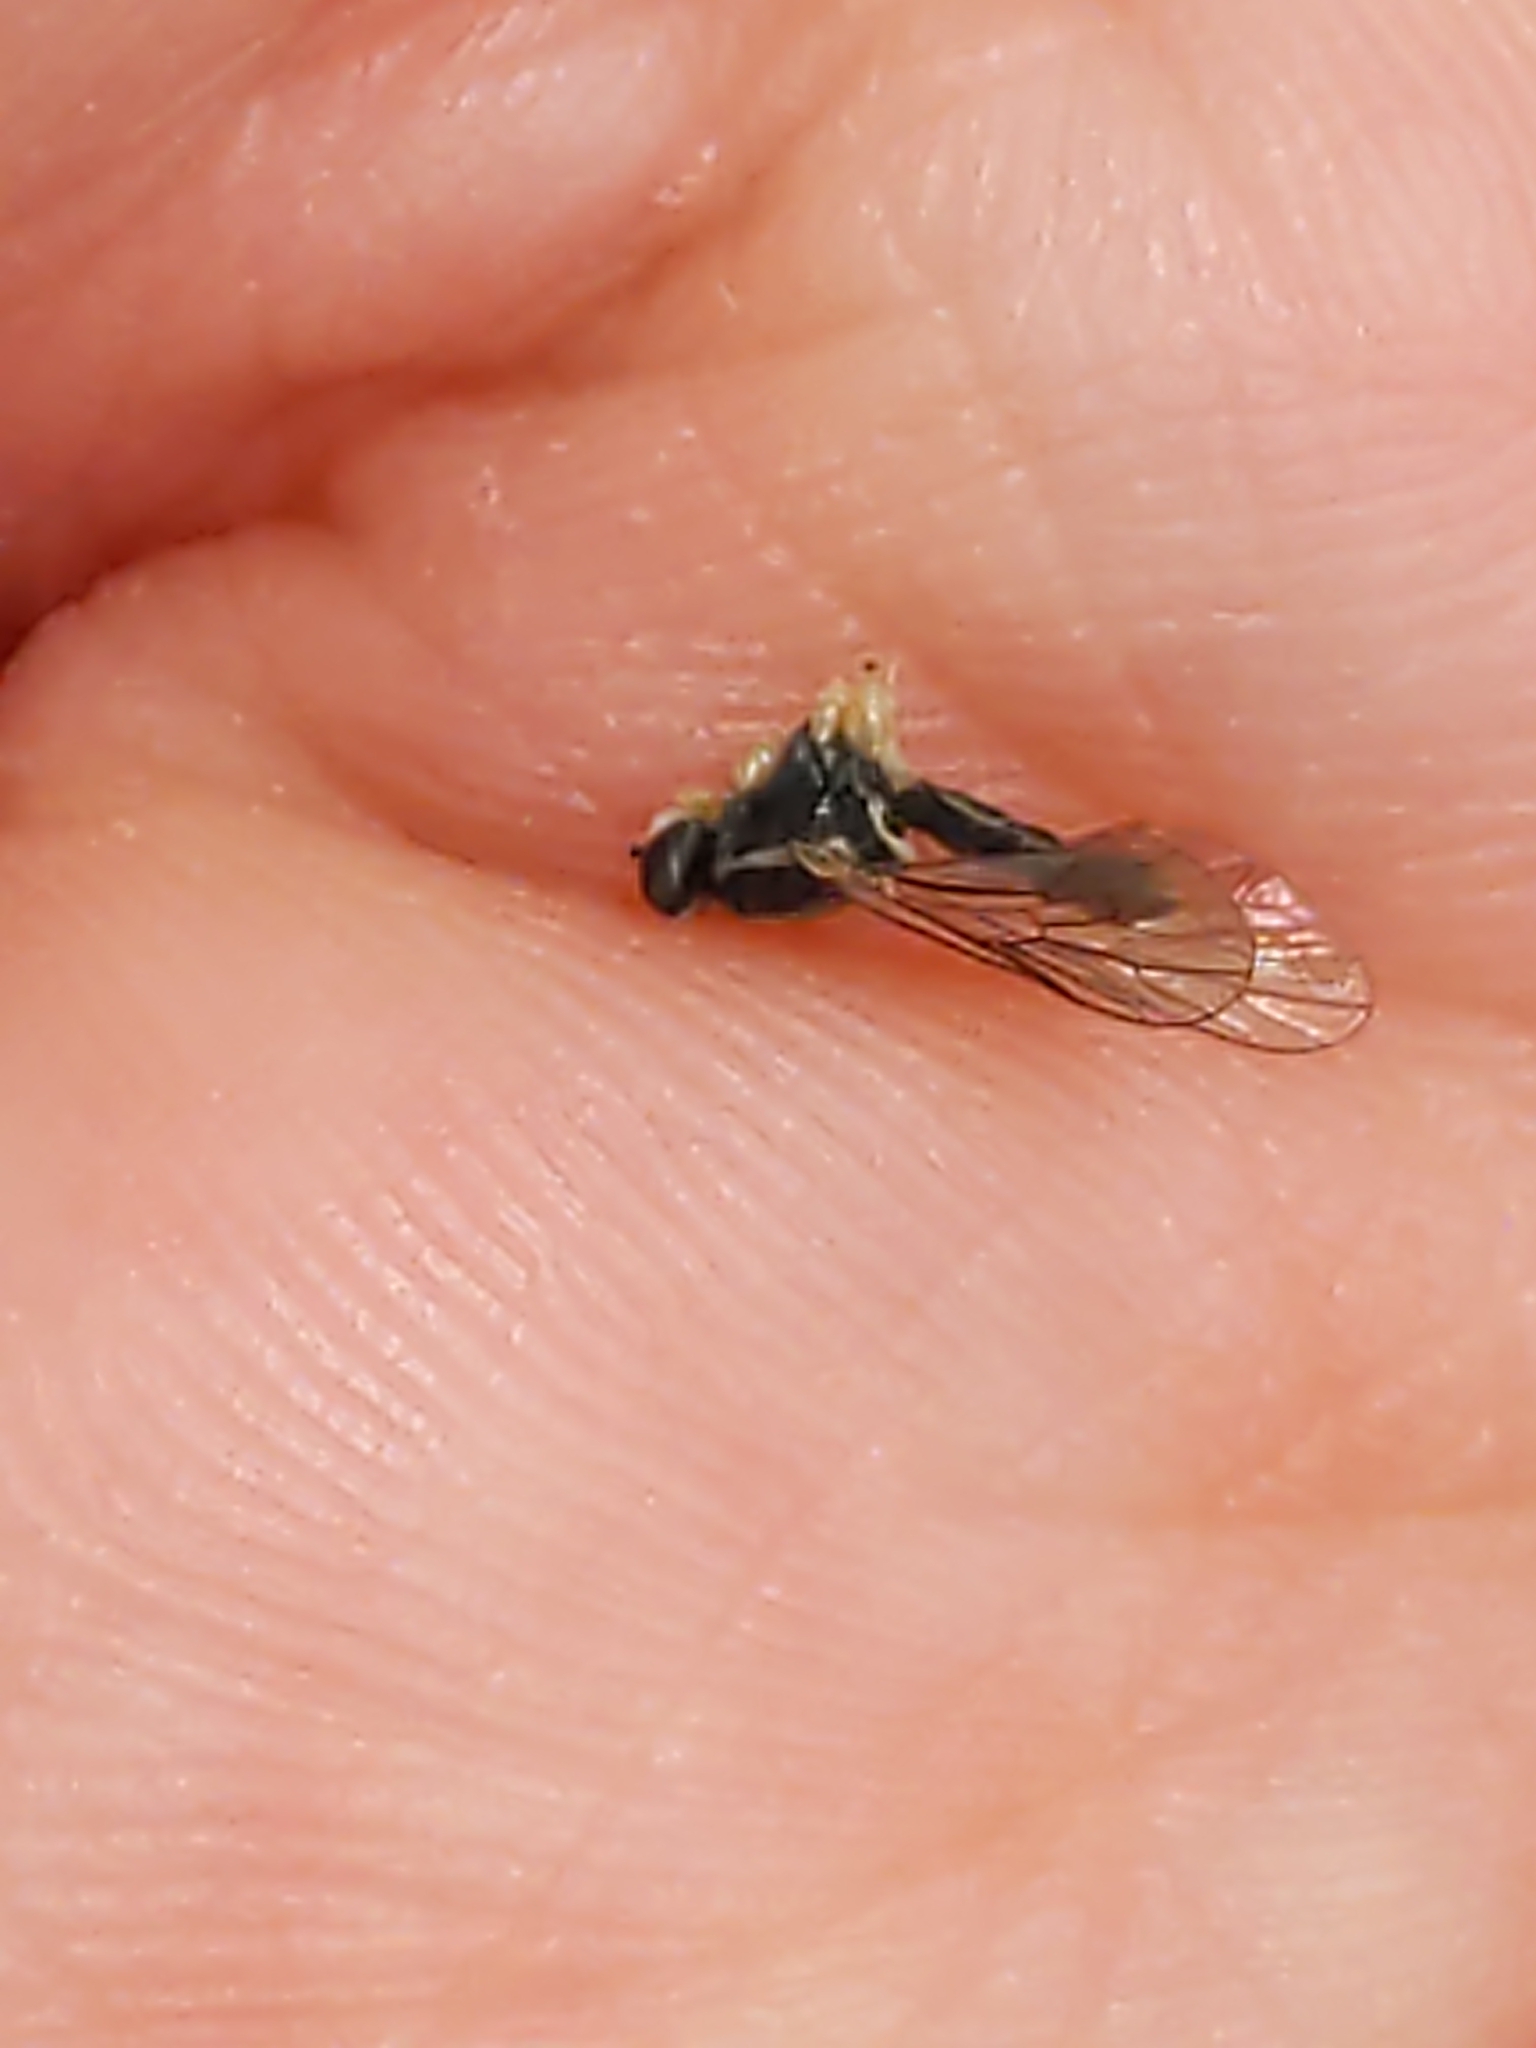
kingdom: Animalia
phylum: Arthropoda
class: Insecta
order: Diptera
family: Xylomyidae
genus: Solva
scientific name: Solva pallipes
